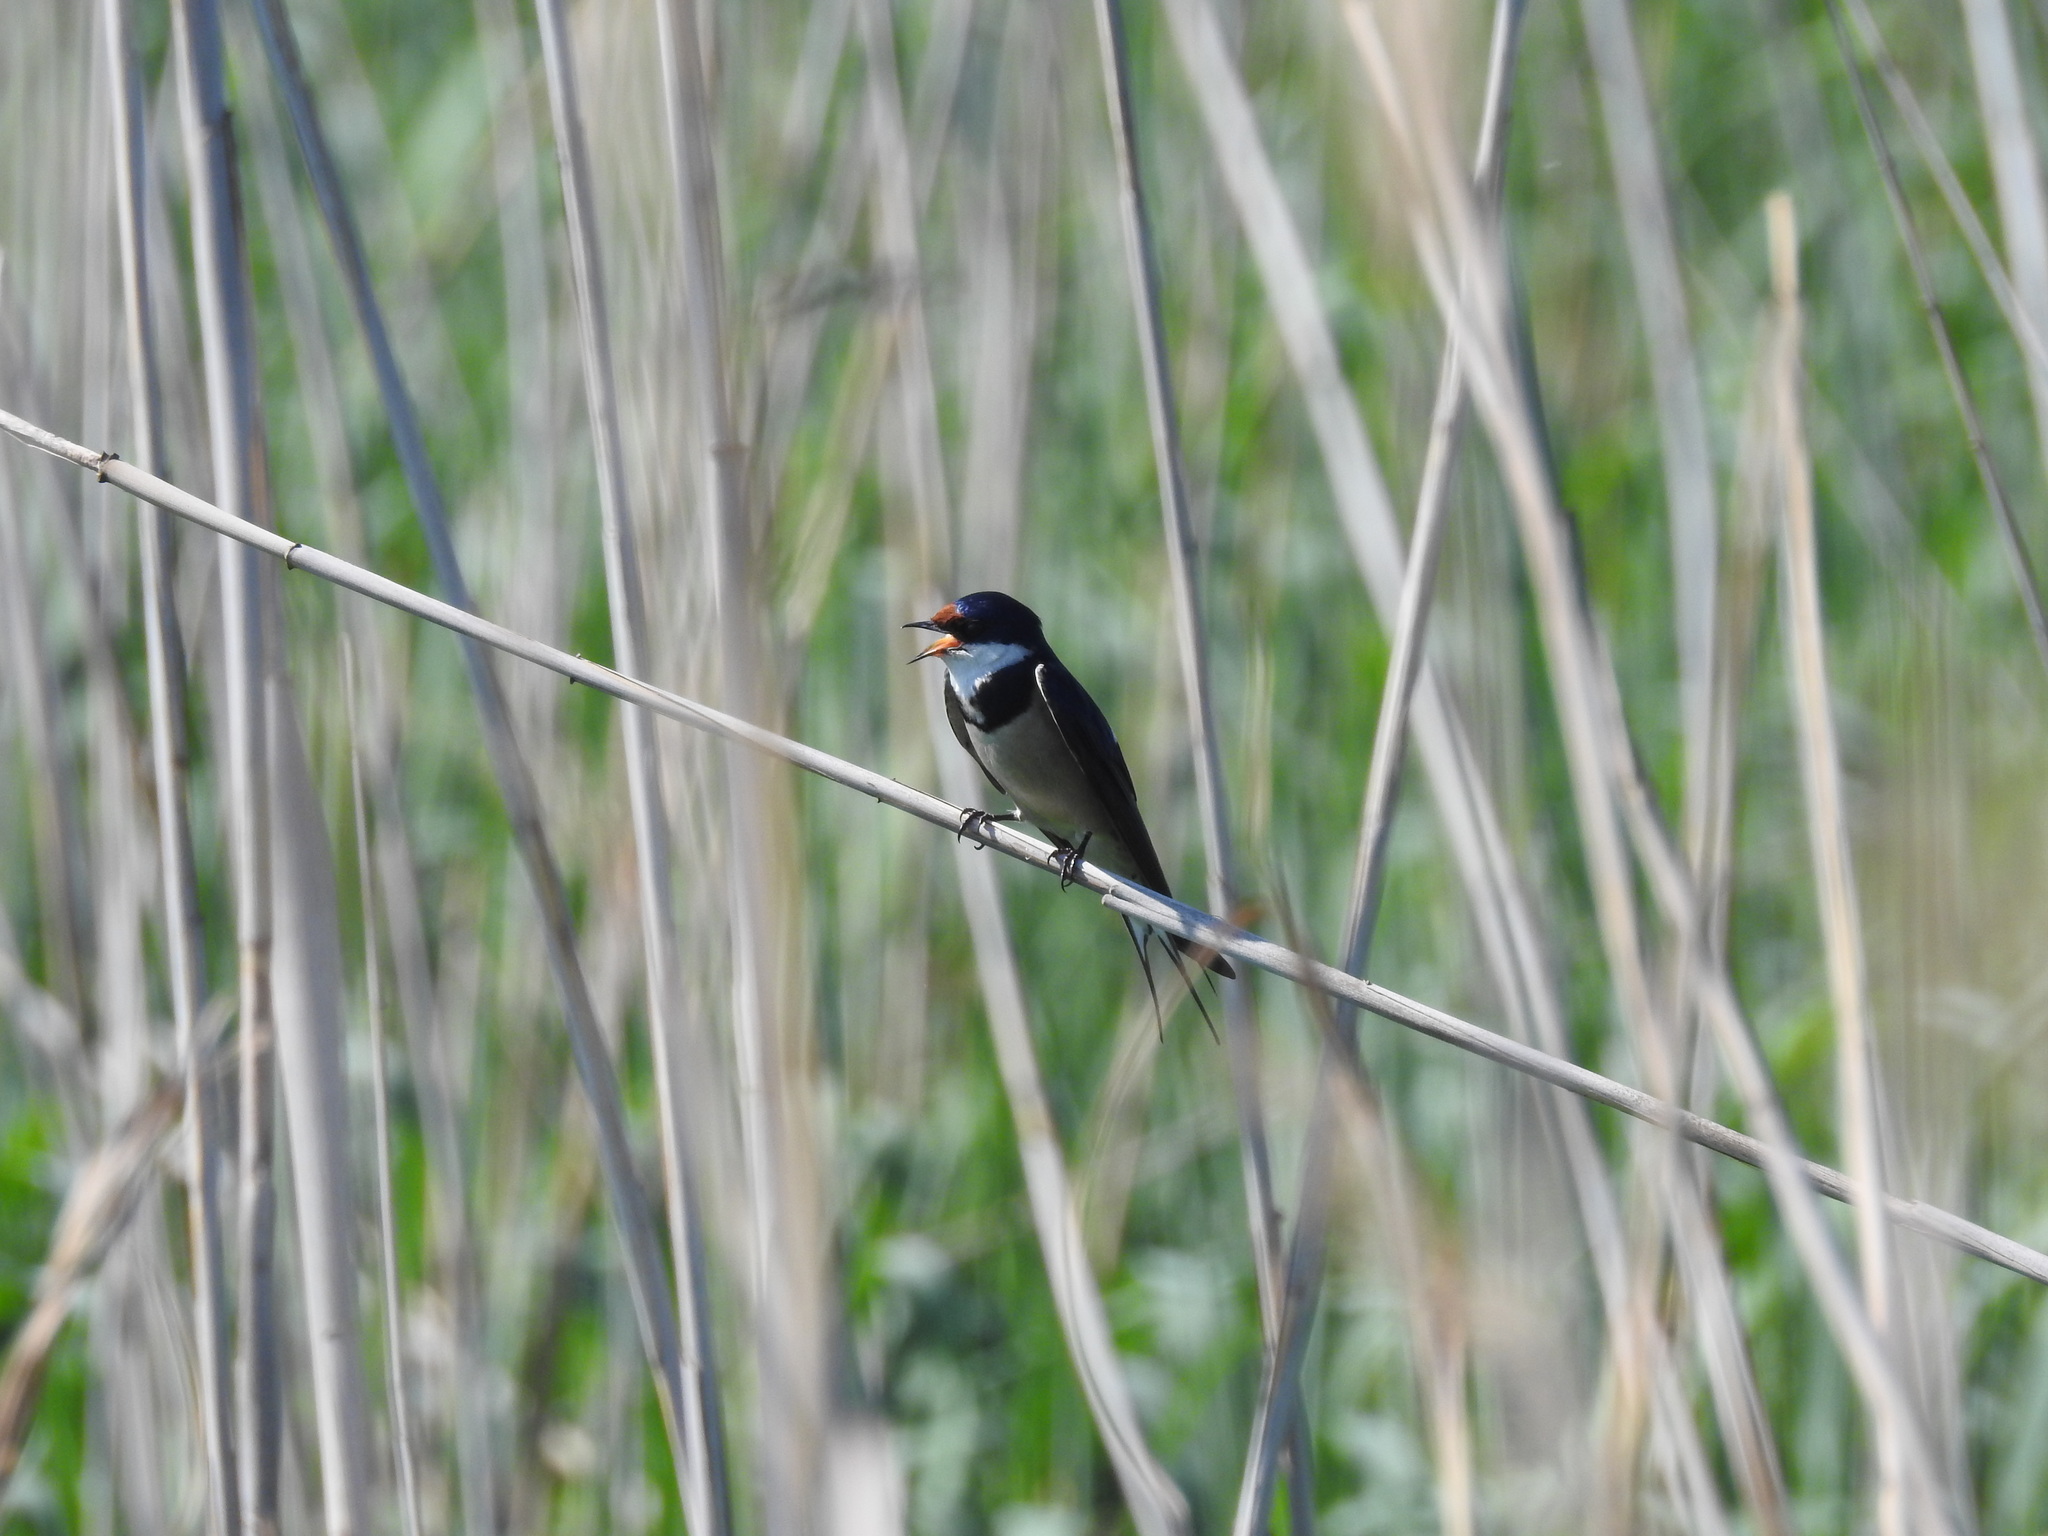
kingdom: Animalia
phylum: Chordata
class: Aves
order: Passeriformes
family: Hirundinidae
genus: Hirundo
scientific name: Hirundo albigularis
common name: White-throated swallow
